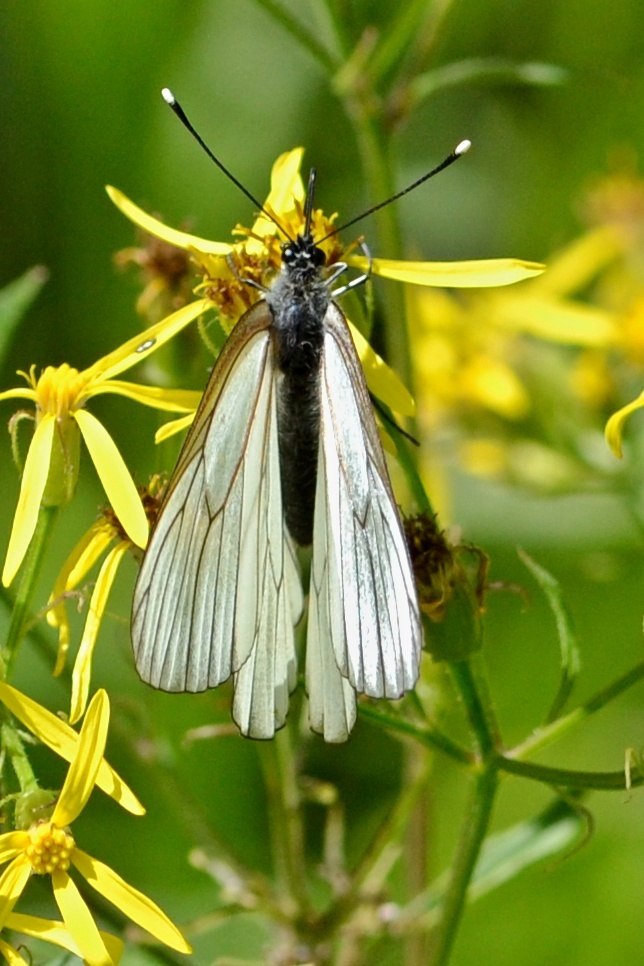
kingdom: Animalia
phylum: Arthropoda
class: Insecta
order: Lepidoptera
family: Pieridae
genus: Aporia
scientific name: Aporia crataegi
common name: Black-veined white
